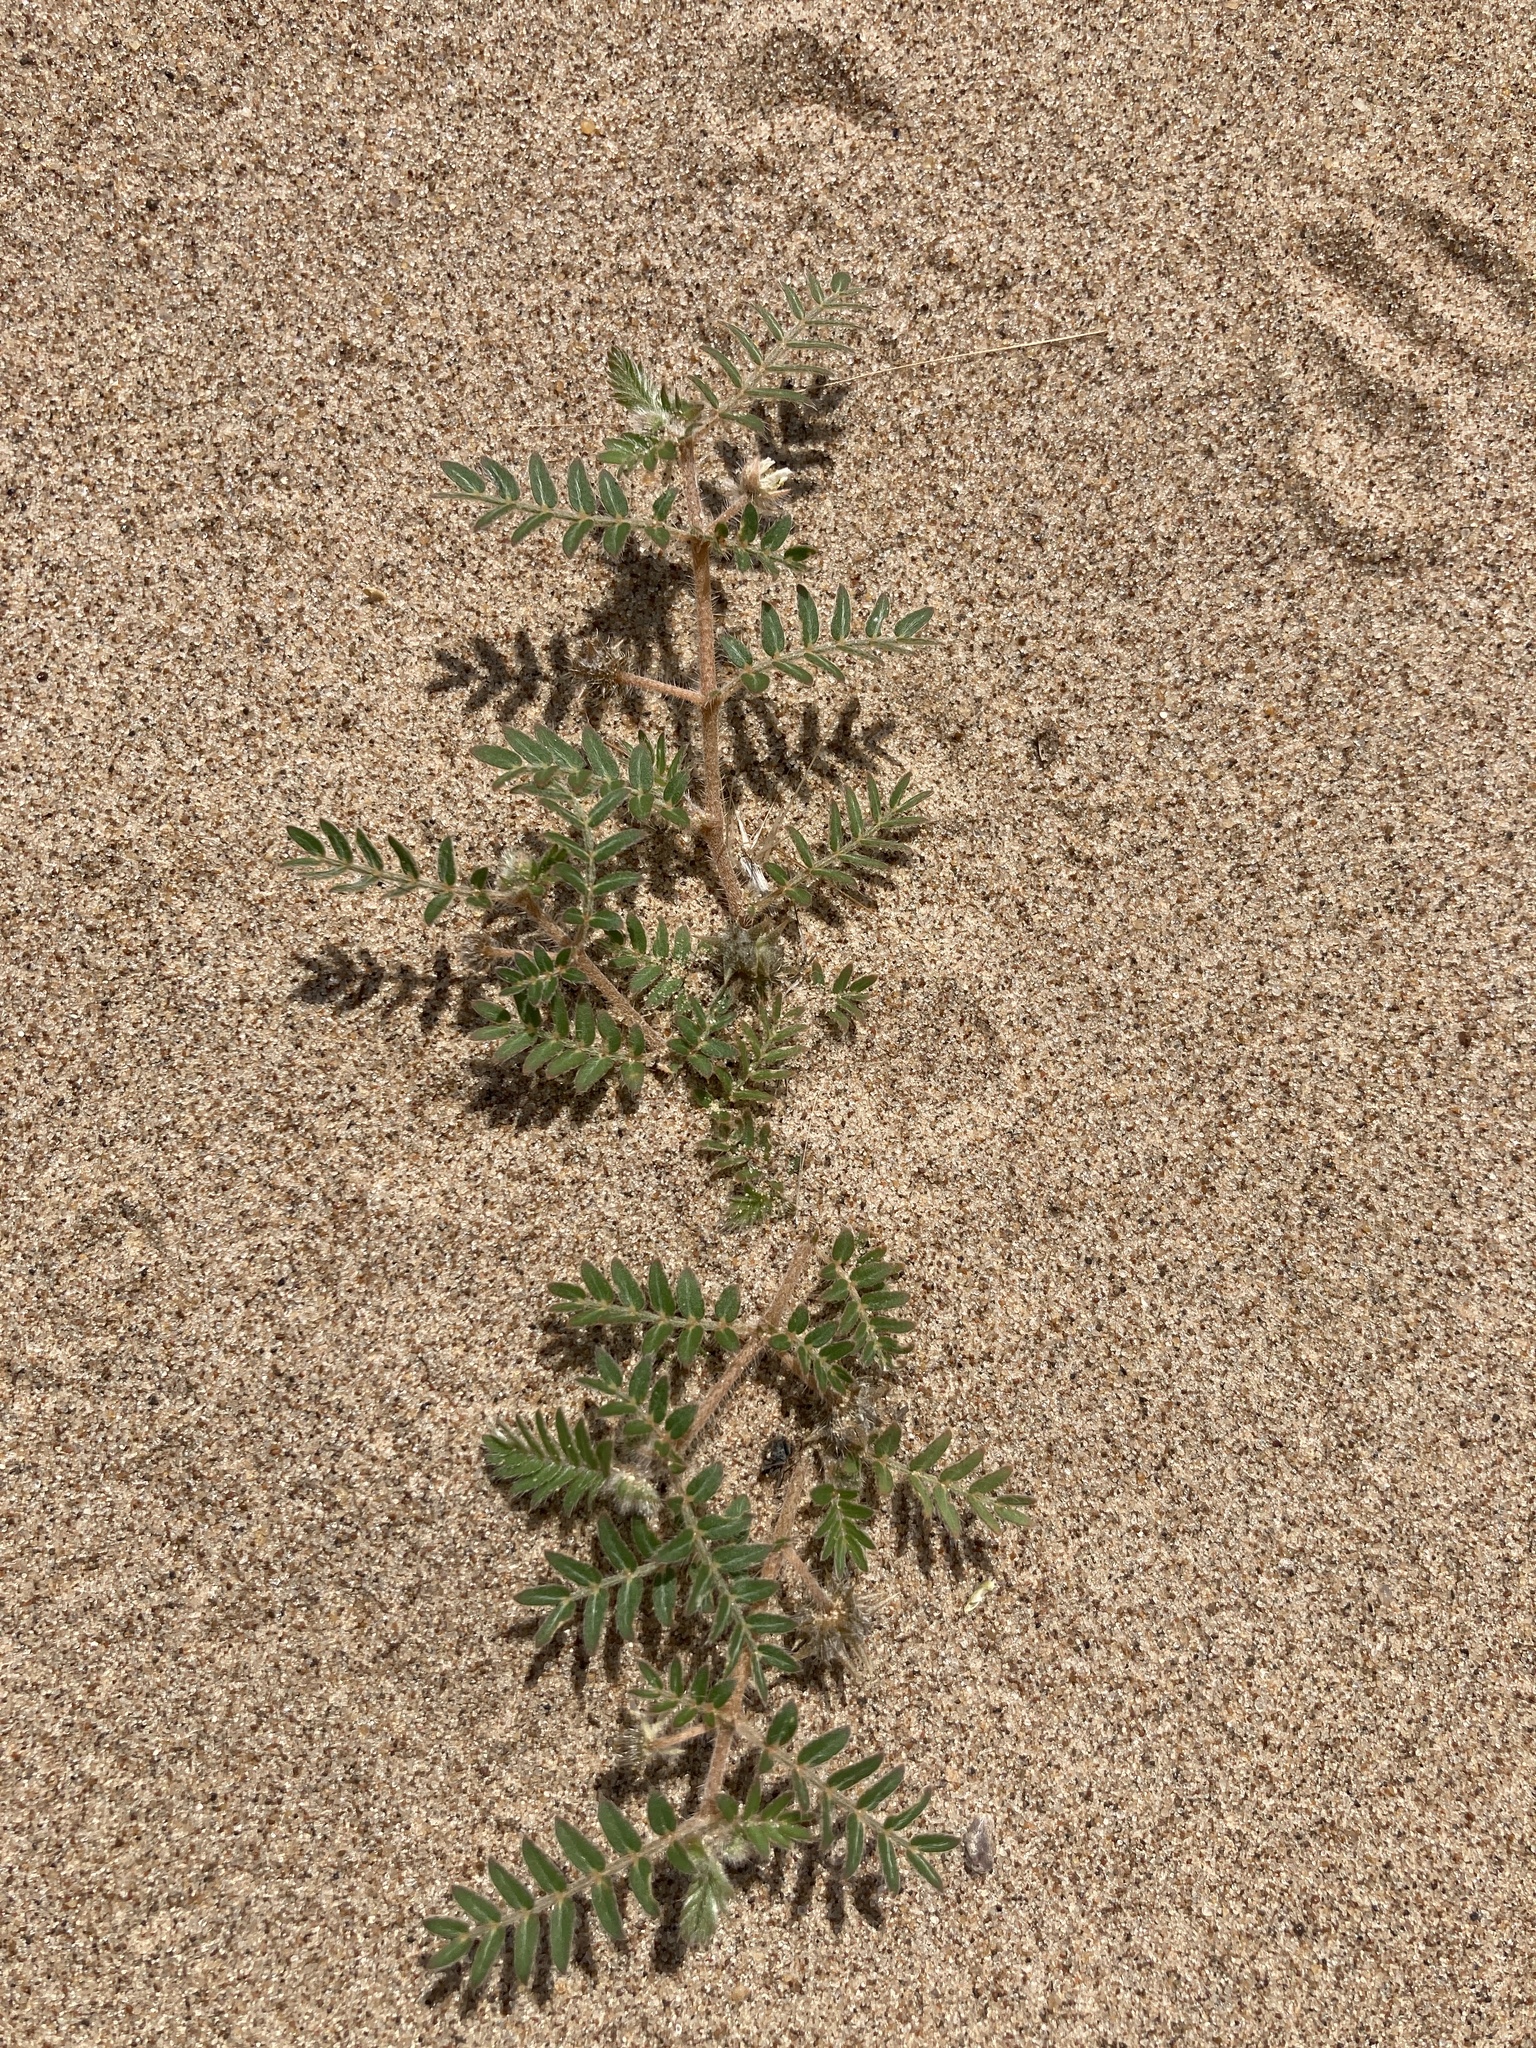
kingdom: Plantae
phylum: Tracheophyta
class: Magnoliopsida
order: Zygophyllales
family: Zygophyllaceae
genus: Tribulus
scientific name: Tribulus terrestris
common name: Puncturevine
